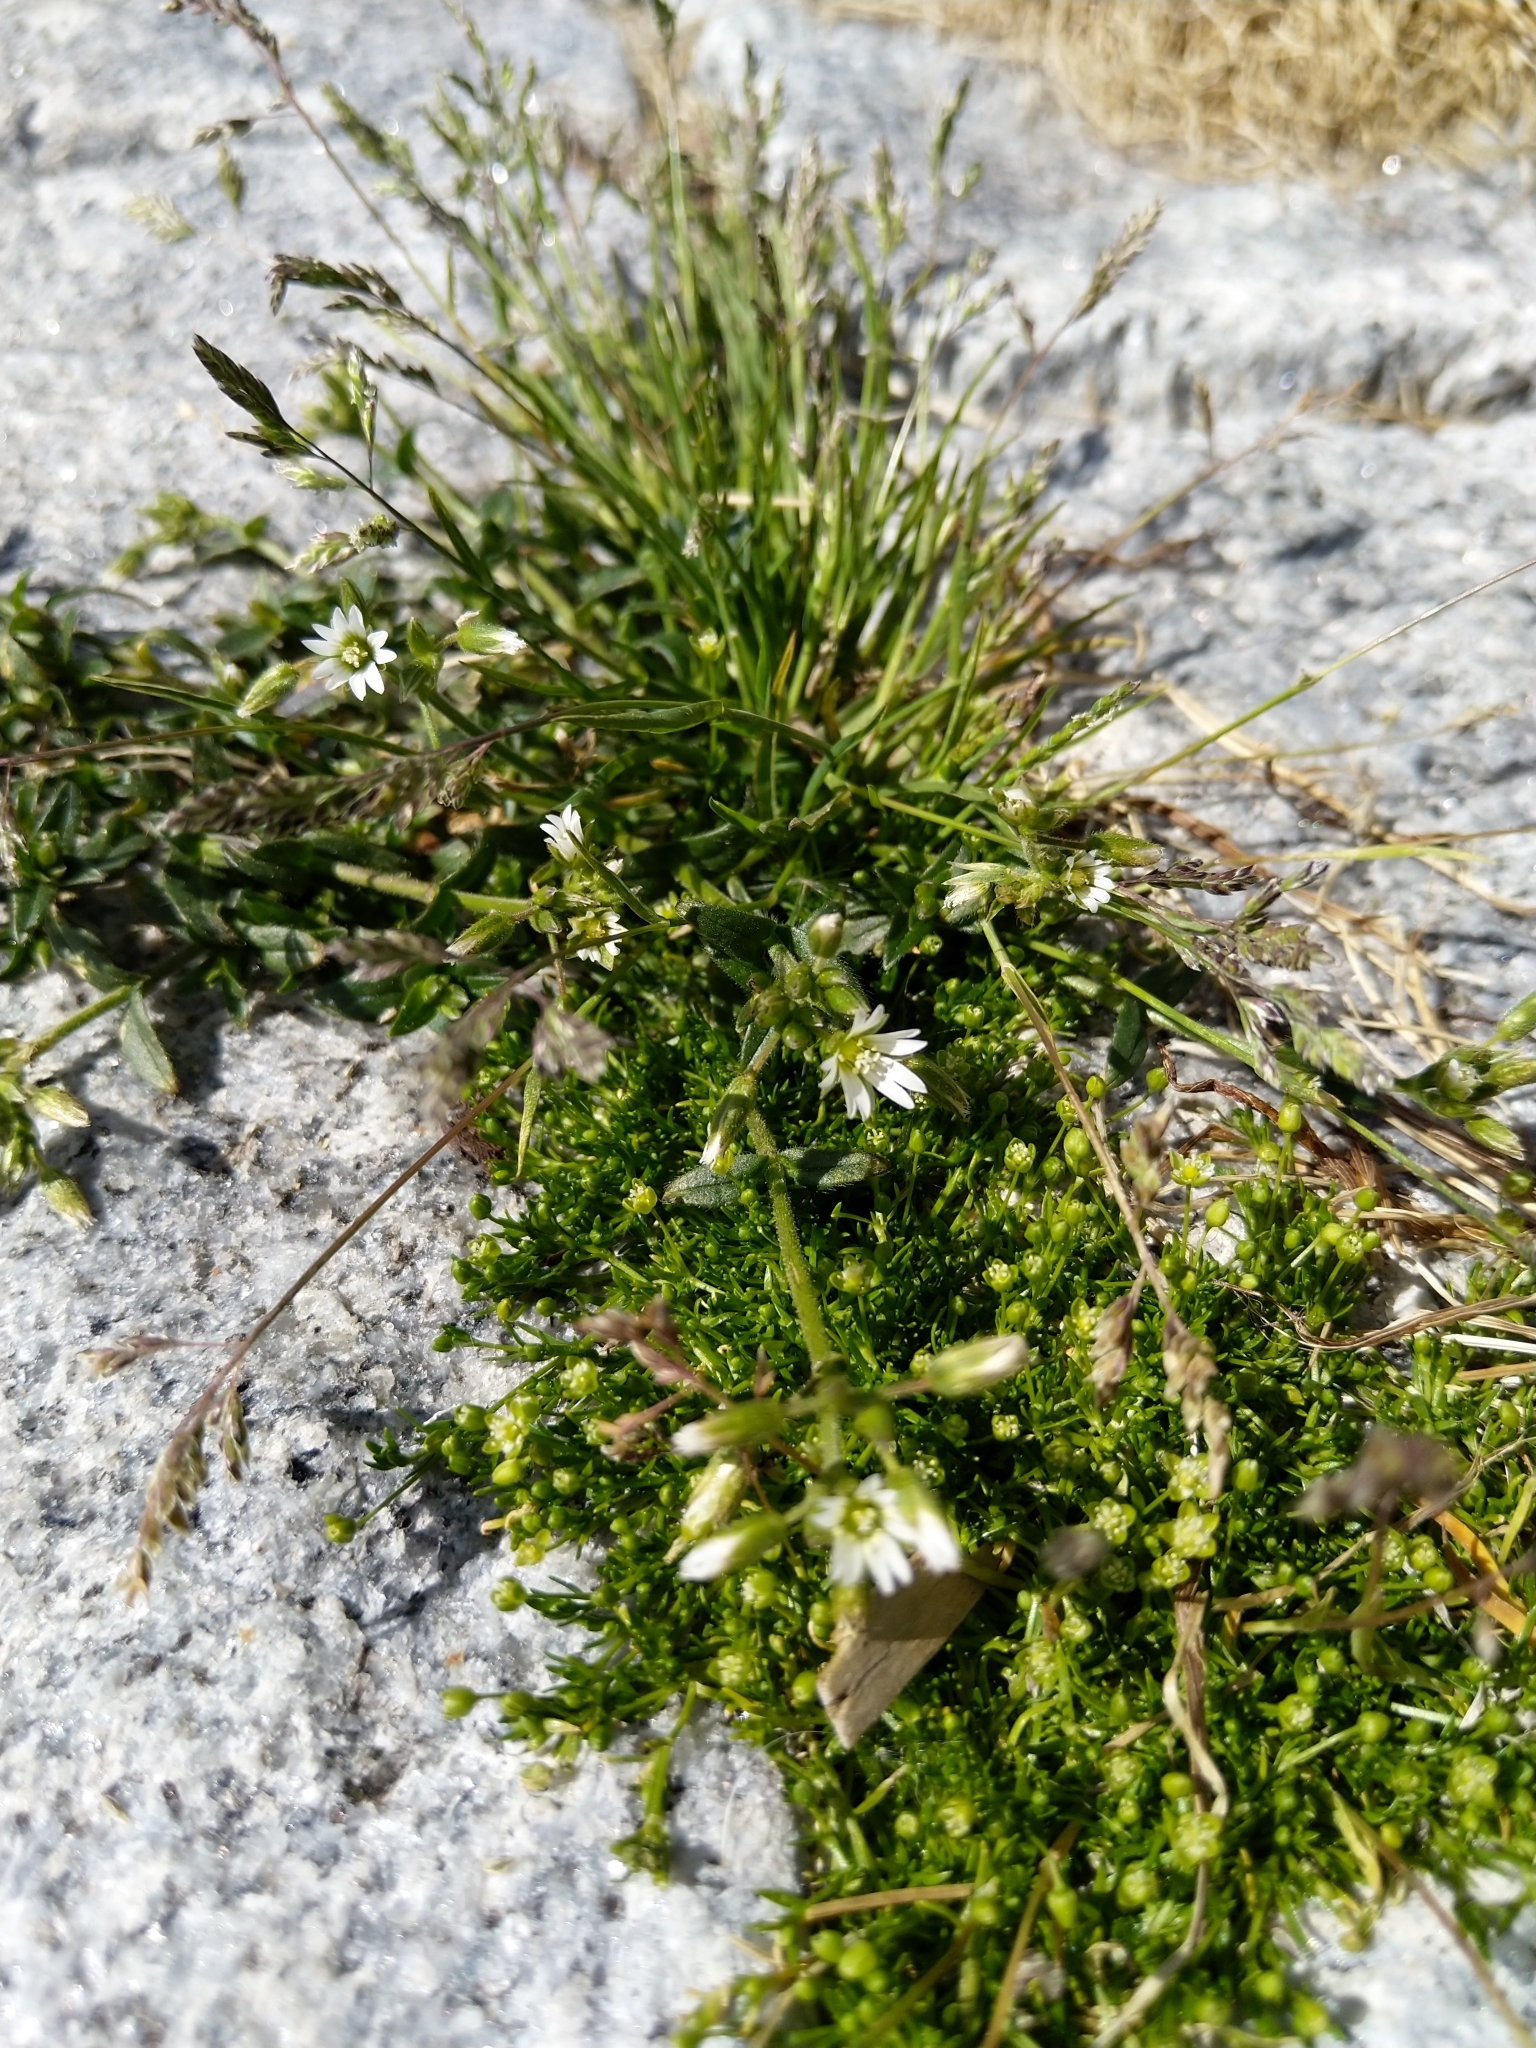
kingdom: Plantae
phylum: Tracheophyta
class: Magnoliopsida
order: Caryophyllales
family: Caryophyllaceae
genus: Cerastium
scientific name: Cerastium holosteoides
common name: Big chickweed
